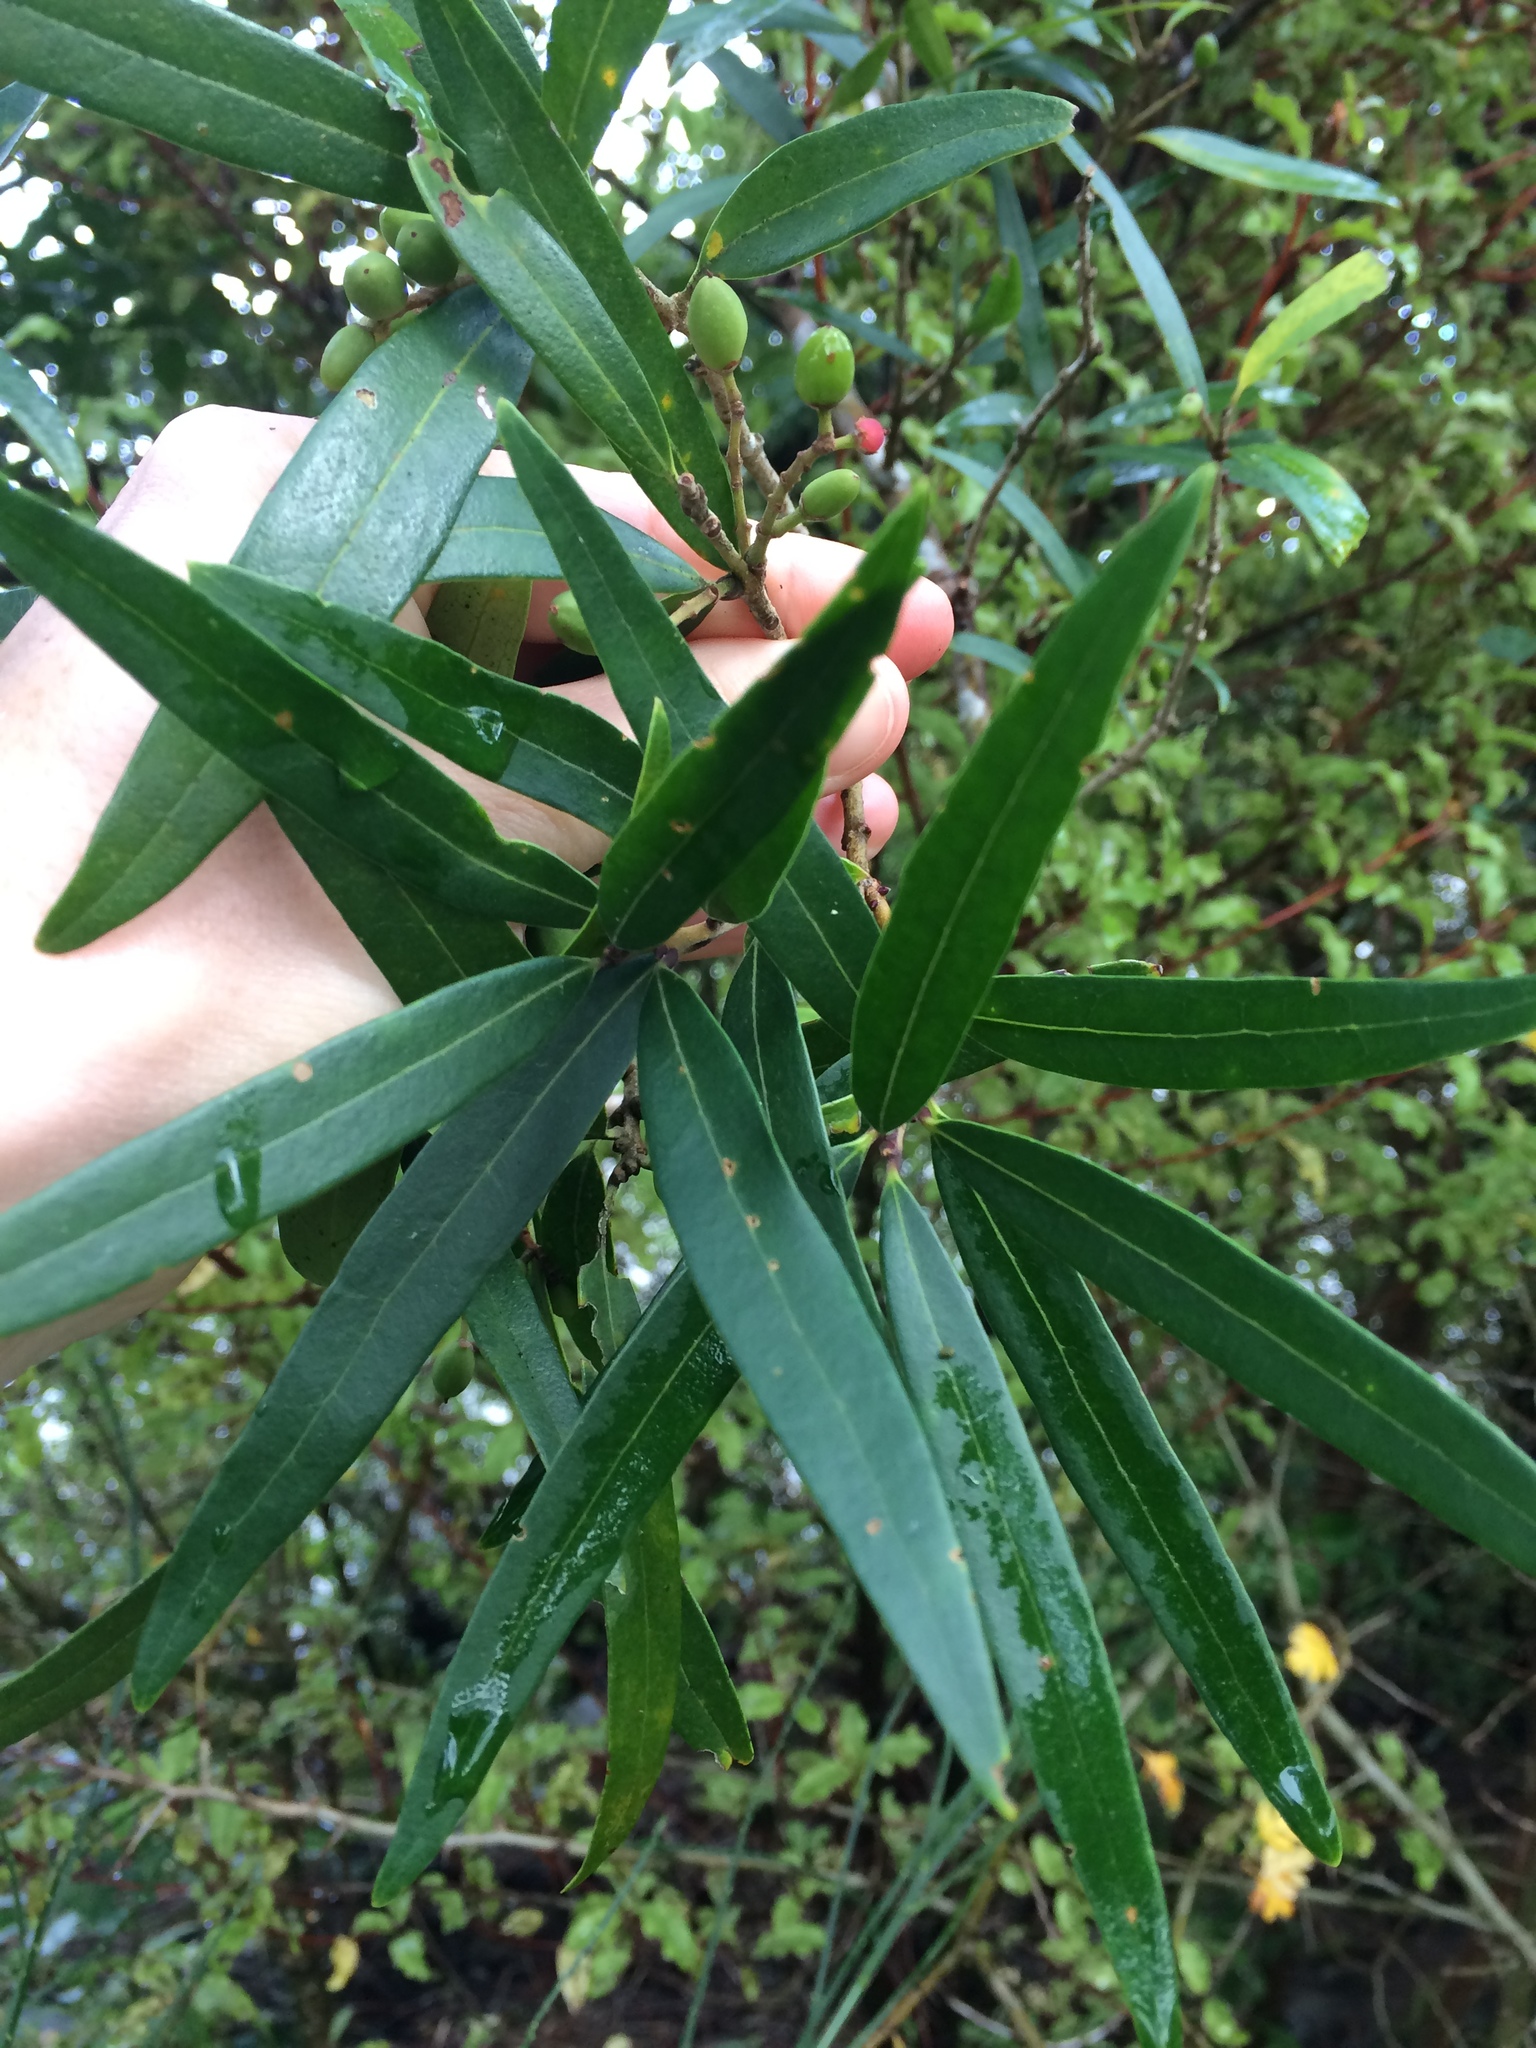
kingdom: Plantae
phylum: Tracheophyta
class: Magnoliopsida
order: Lamiales
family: Oleaceae
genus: Nestegis
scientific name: Nestegis lanceolata
